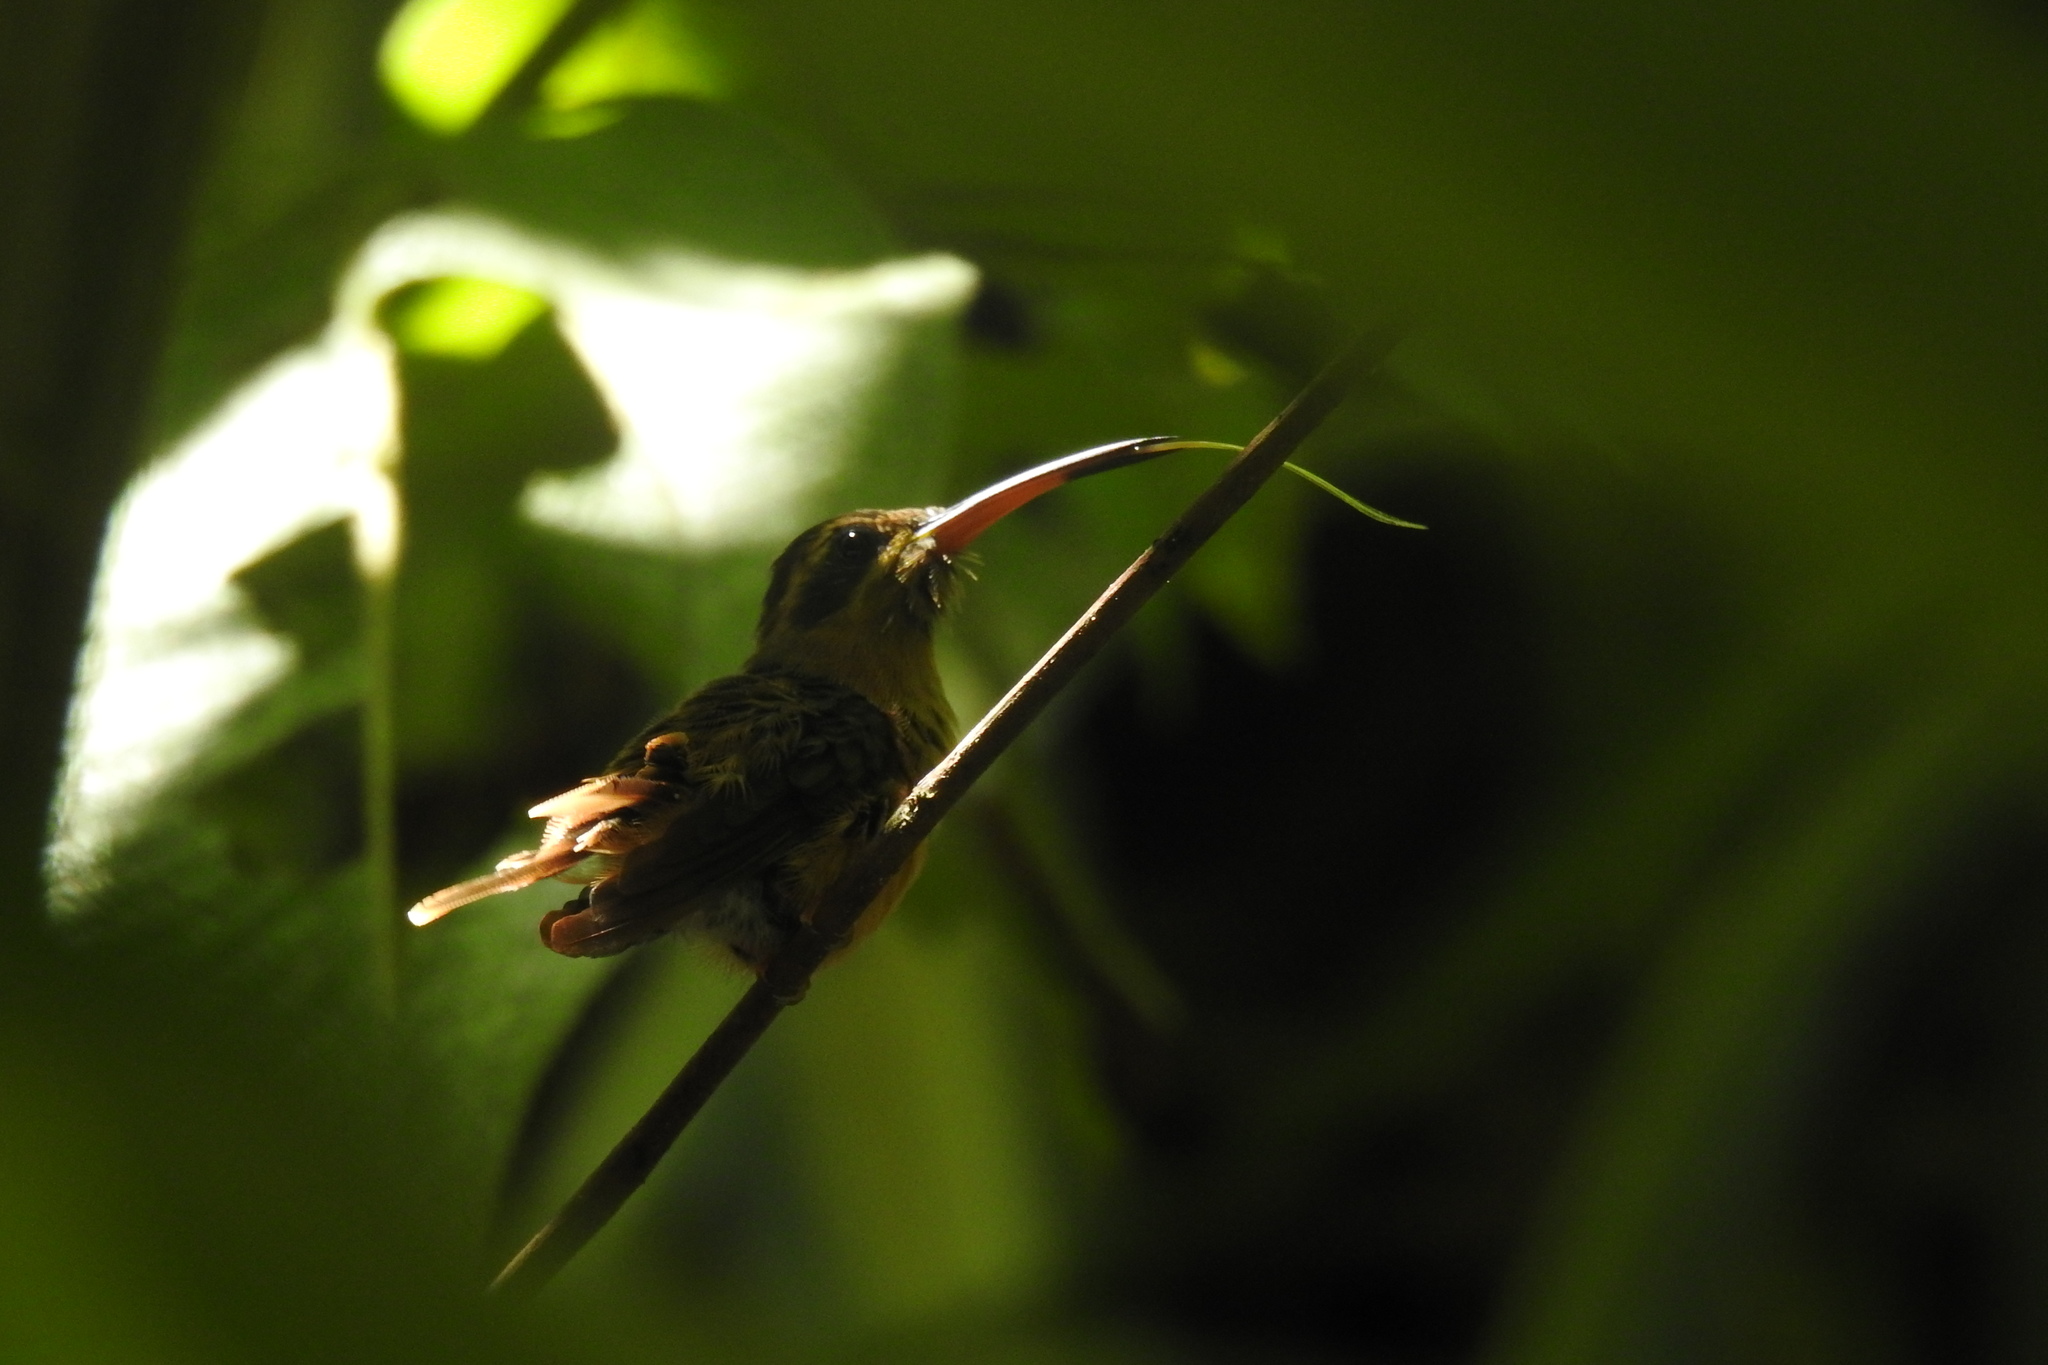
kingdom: Animalia
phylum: Chordata
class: Aves
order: Apodiformes
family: Trochilidae
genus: Phaethornis
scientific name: Phaethornis striigularis
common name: Stripe-throated hermit
